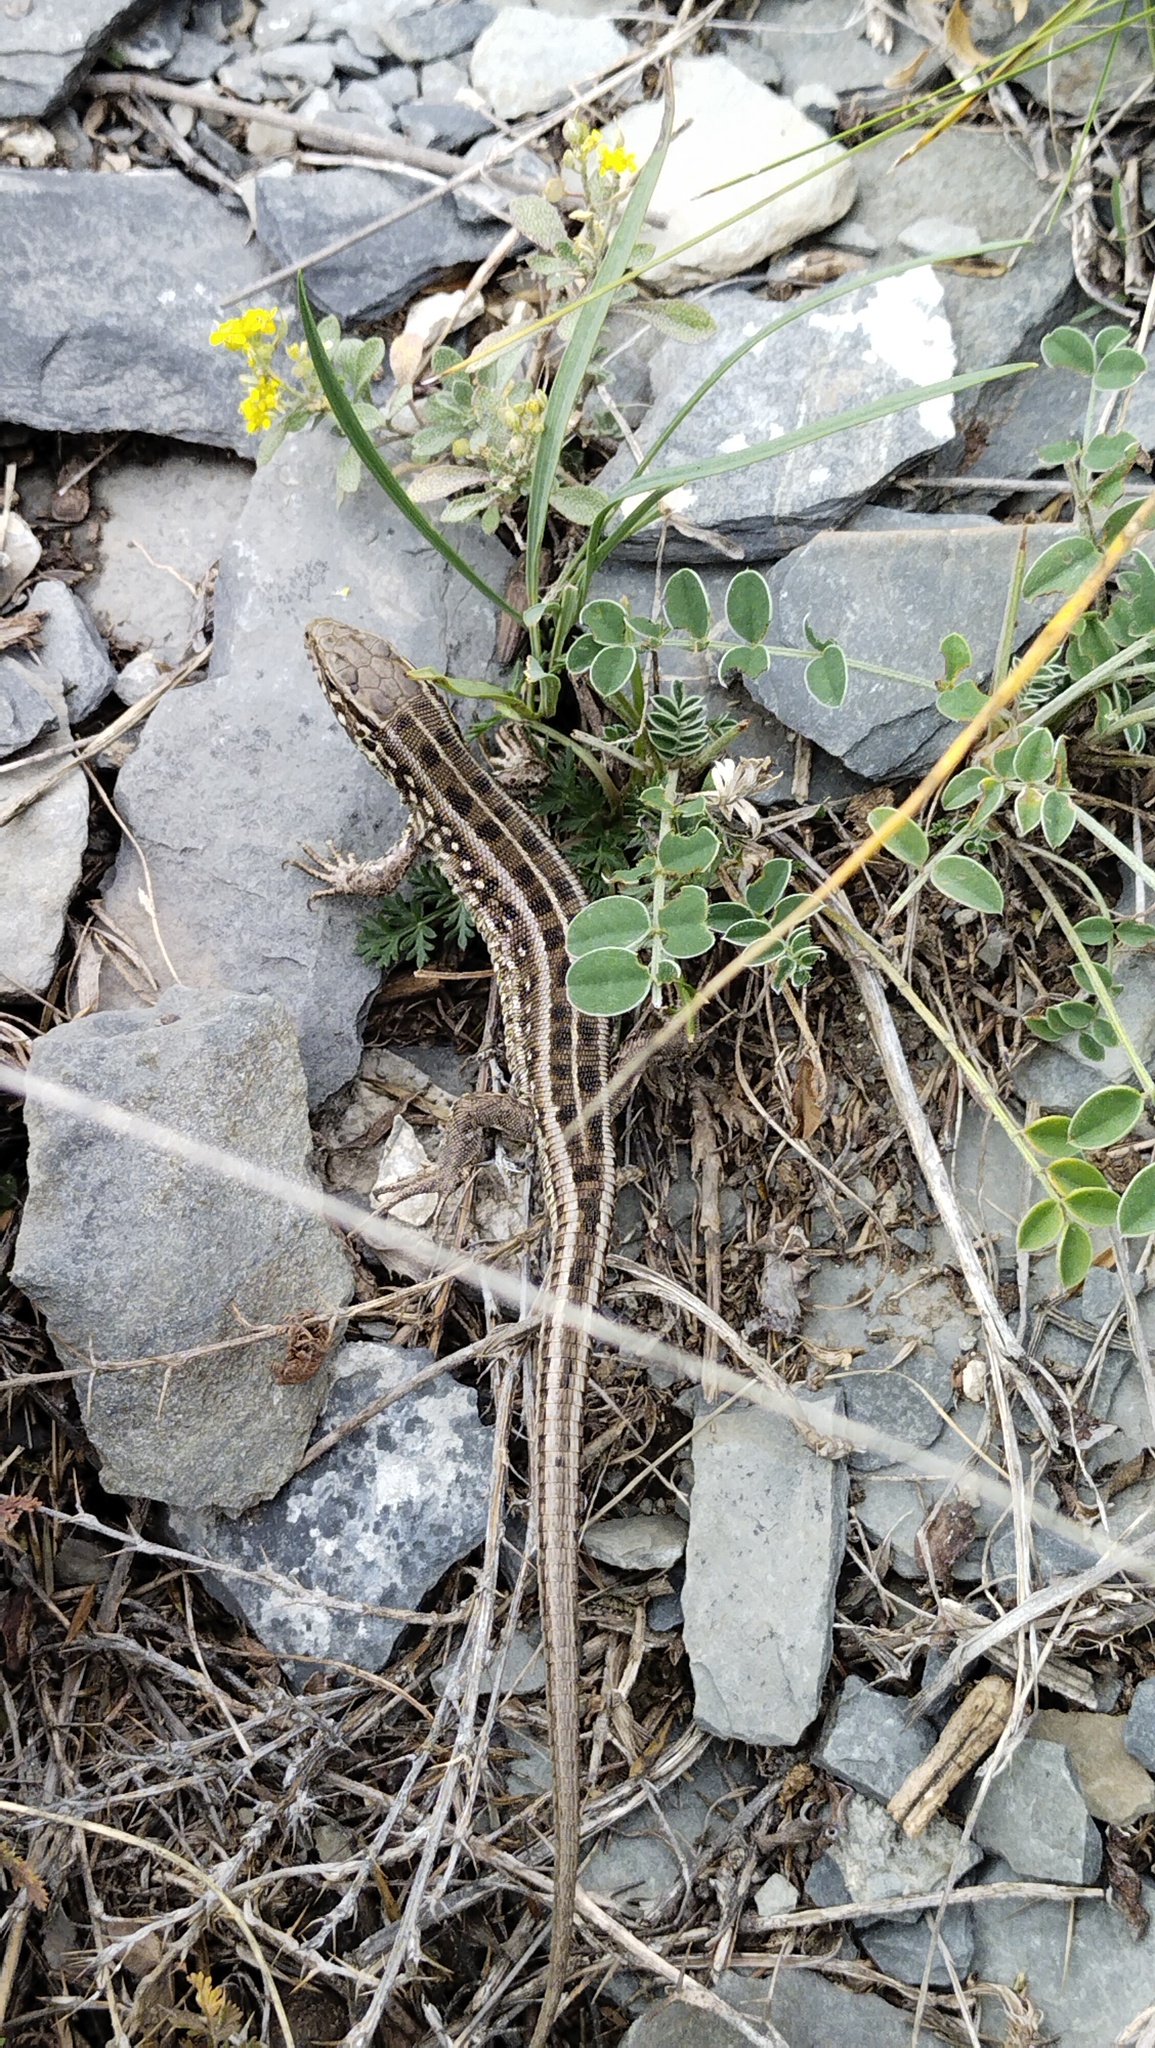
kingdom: Animalia
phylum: Chordata
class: Squamata
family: Lacertidae
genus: Lacerta
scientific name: Lacerta agilis
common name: Sand lizard
